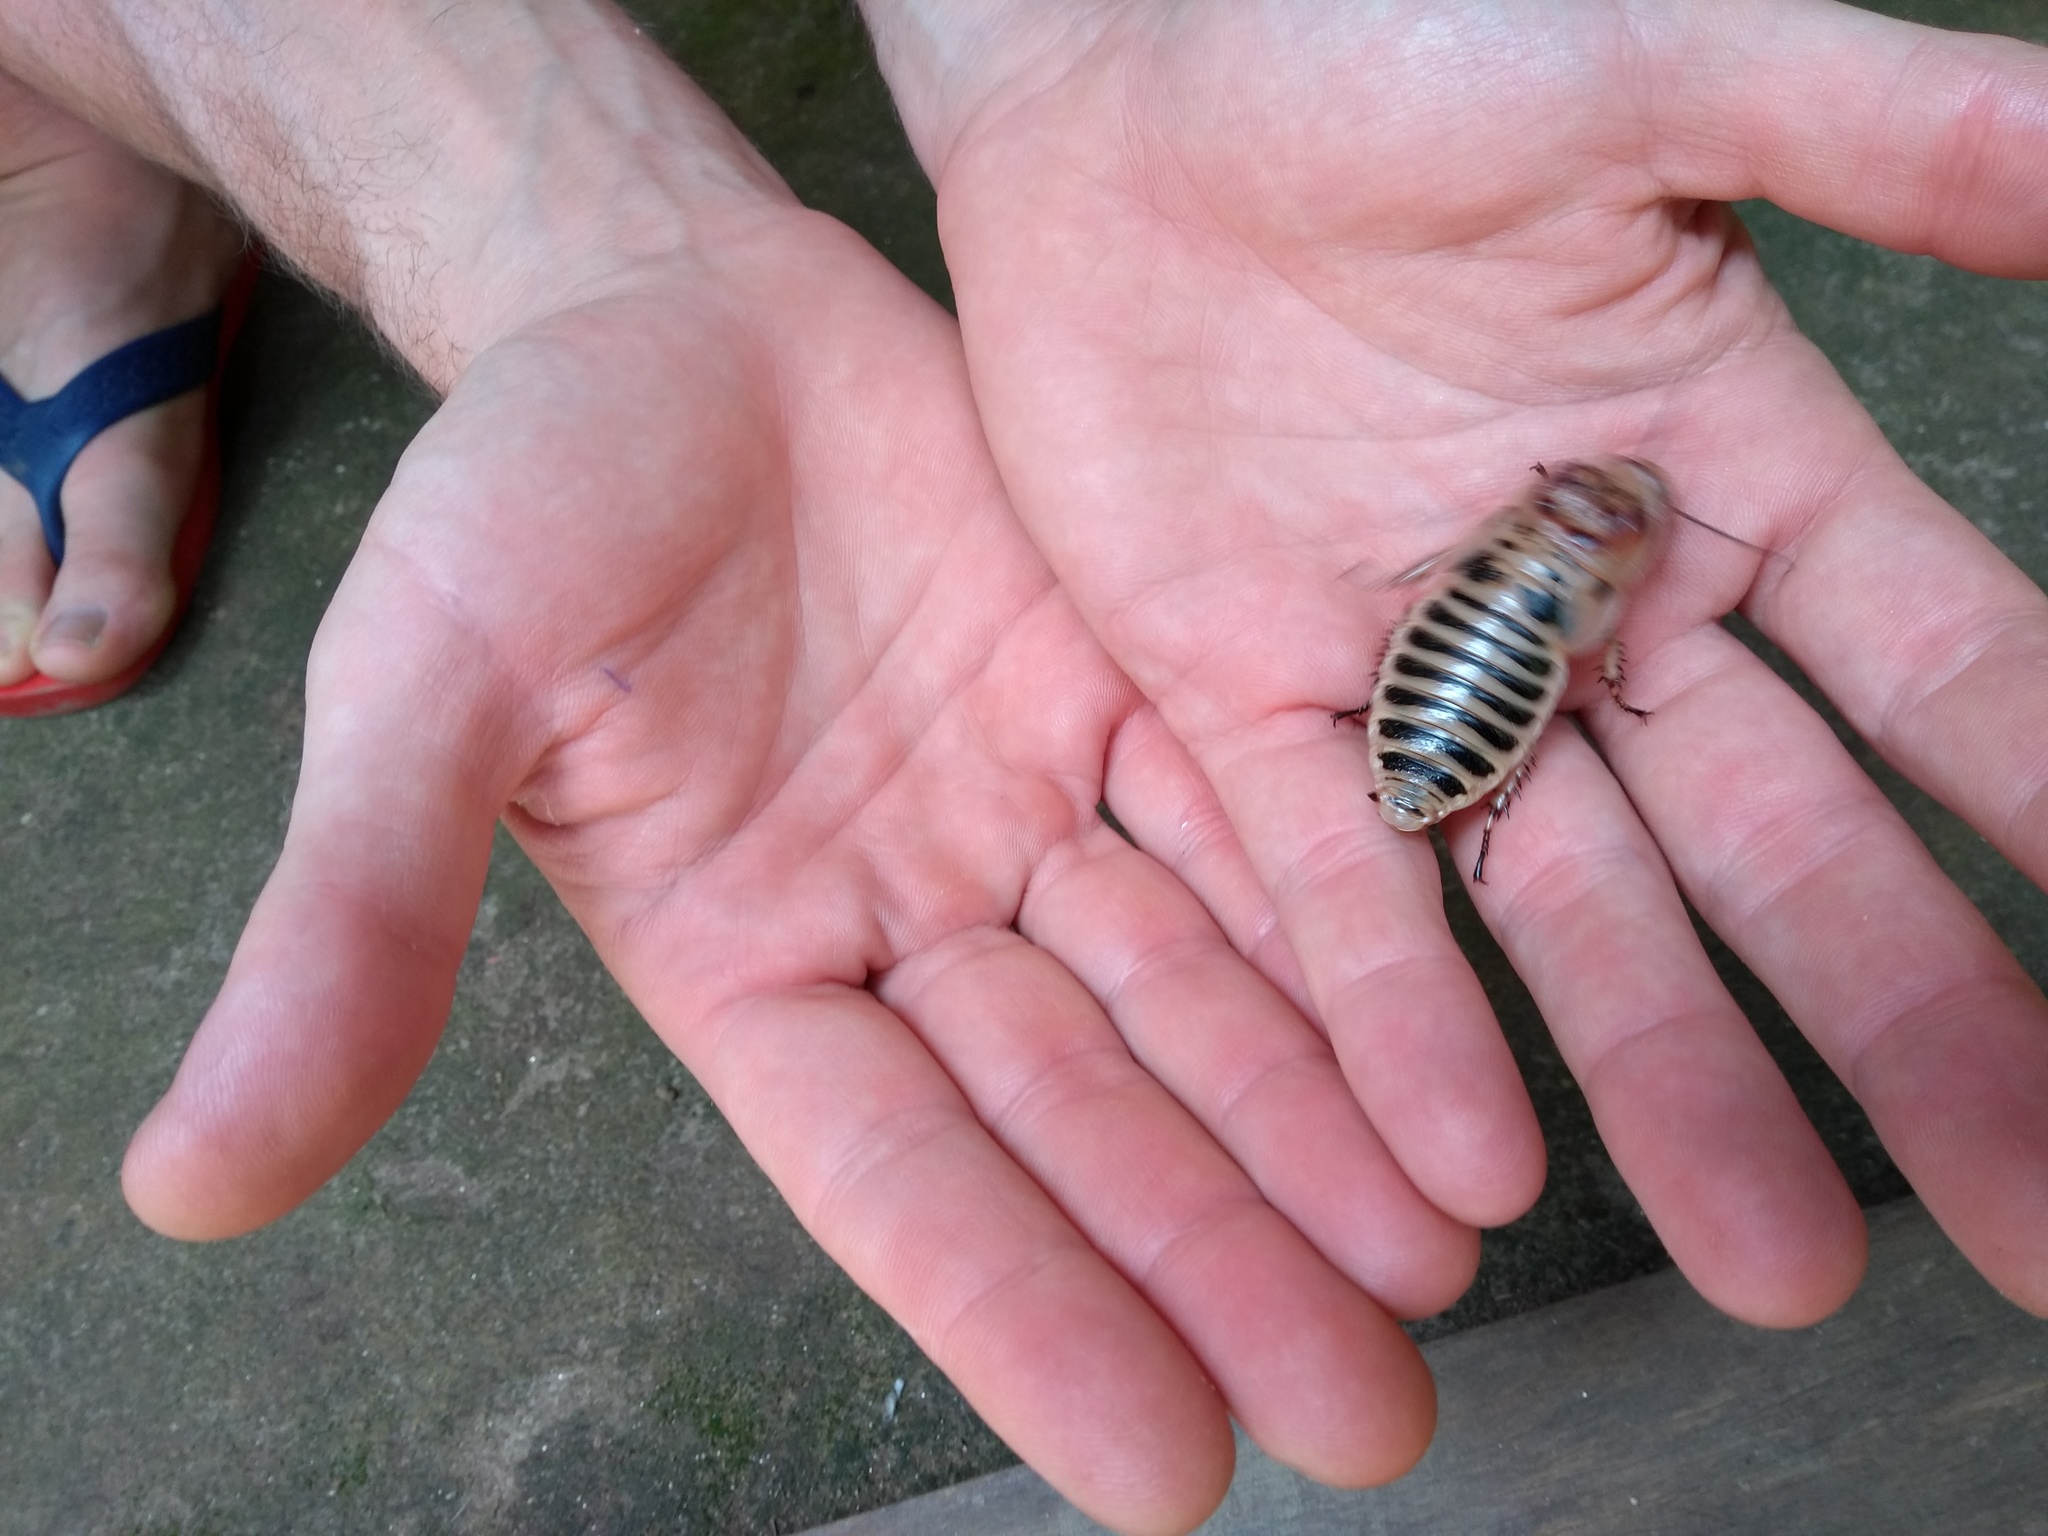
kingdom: Animalia
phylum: Arthropoda
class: Insecta
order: Blattodea
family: Blaberidae
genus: Parahormetica
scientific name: Parahormetica cicatricosa
